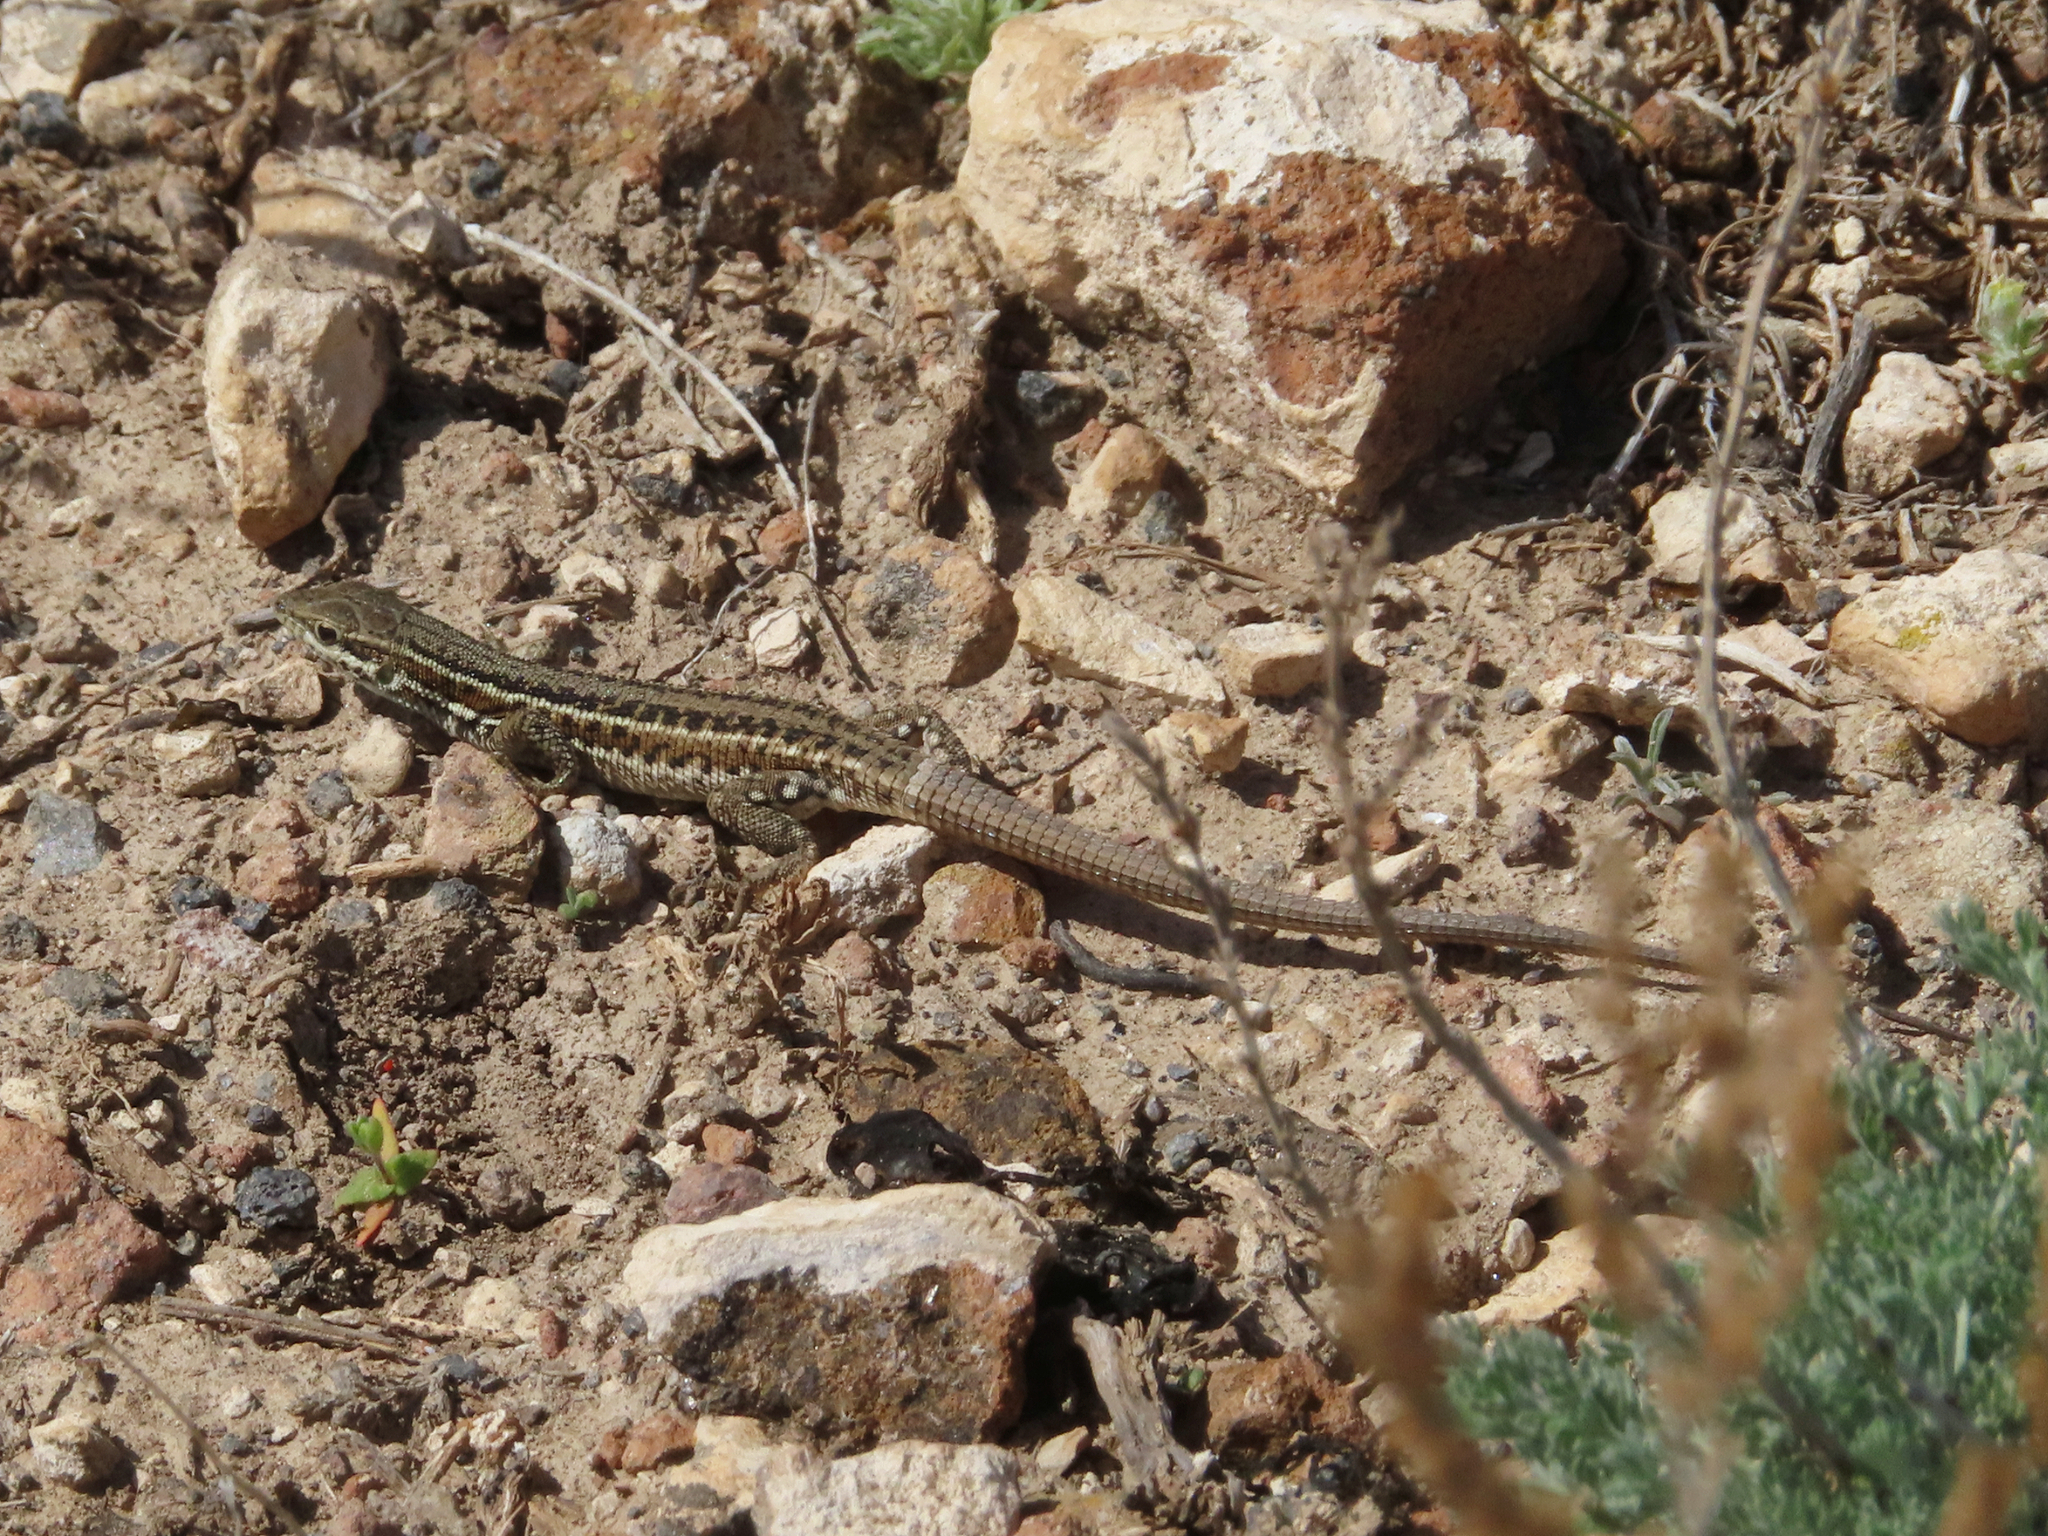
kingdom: Animalia
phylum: Chordata
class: Squamata
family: Lacertidae
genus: Ophisops
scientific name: Ophisops elegans
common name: Snake-eyed lizard
